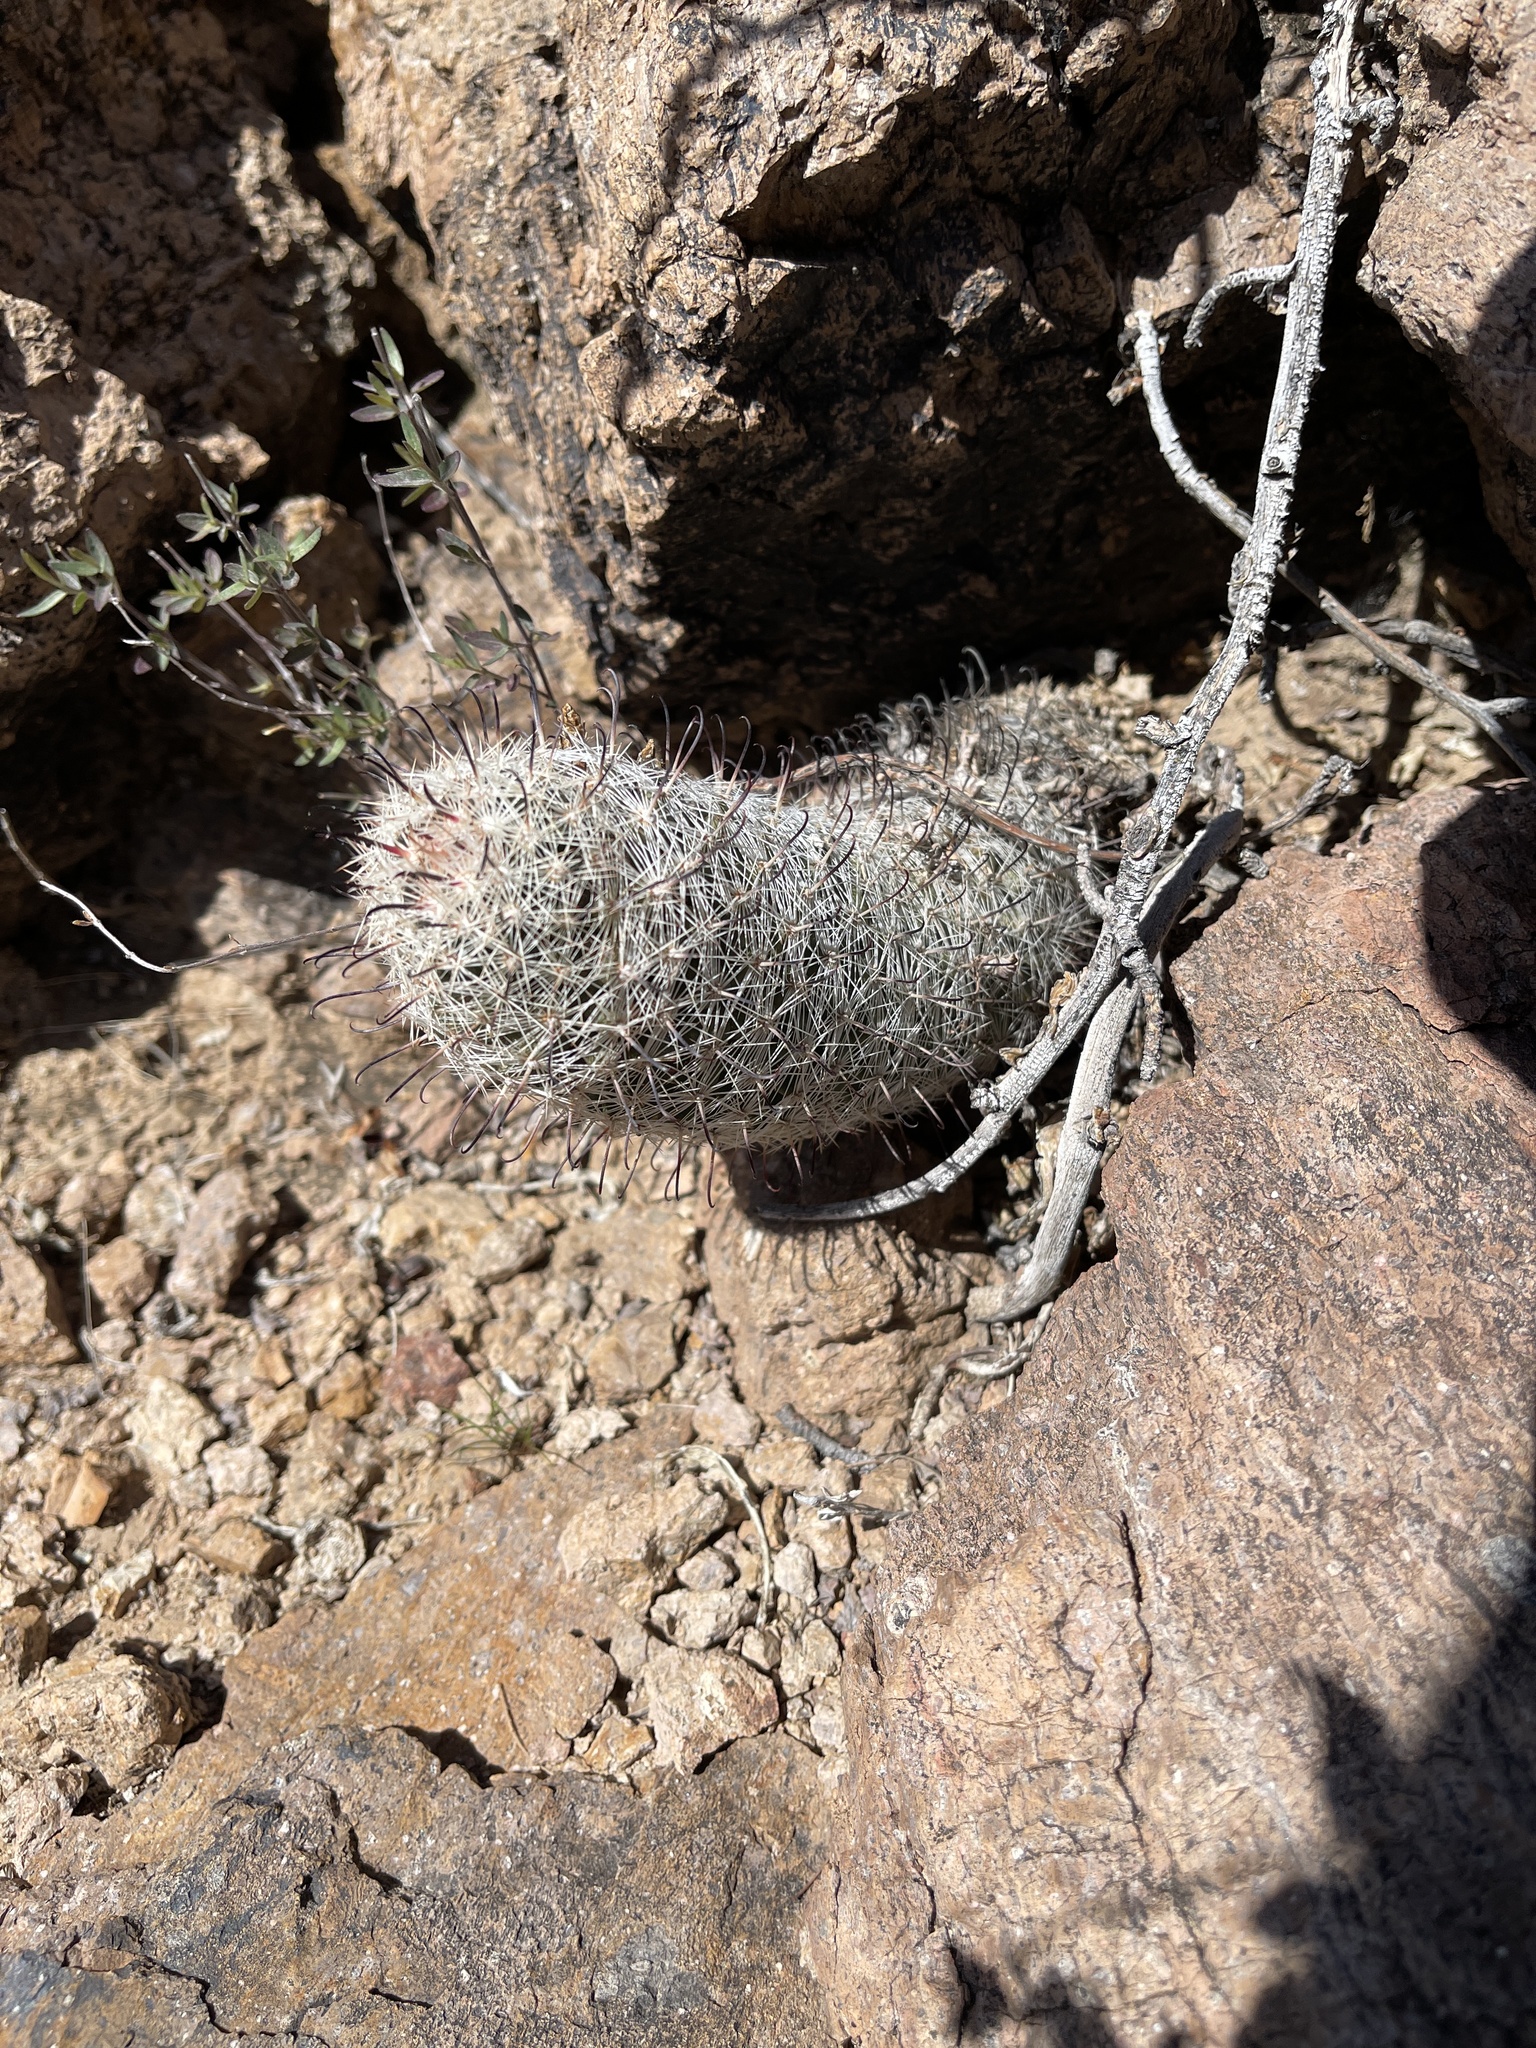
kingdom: Plantae
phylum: Tracheophyta
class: Magnoliopsida
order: Caryophyllales
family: Cactaceae
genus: Cochemiea
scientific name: Cochemiea grahamii
